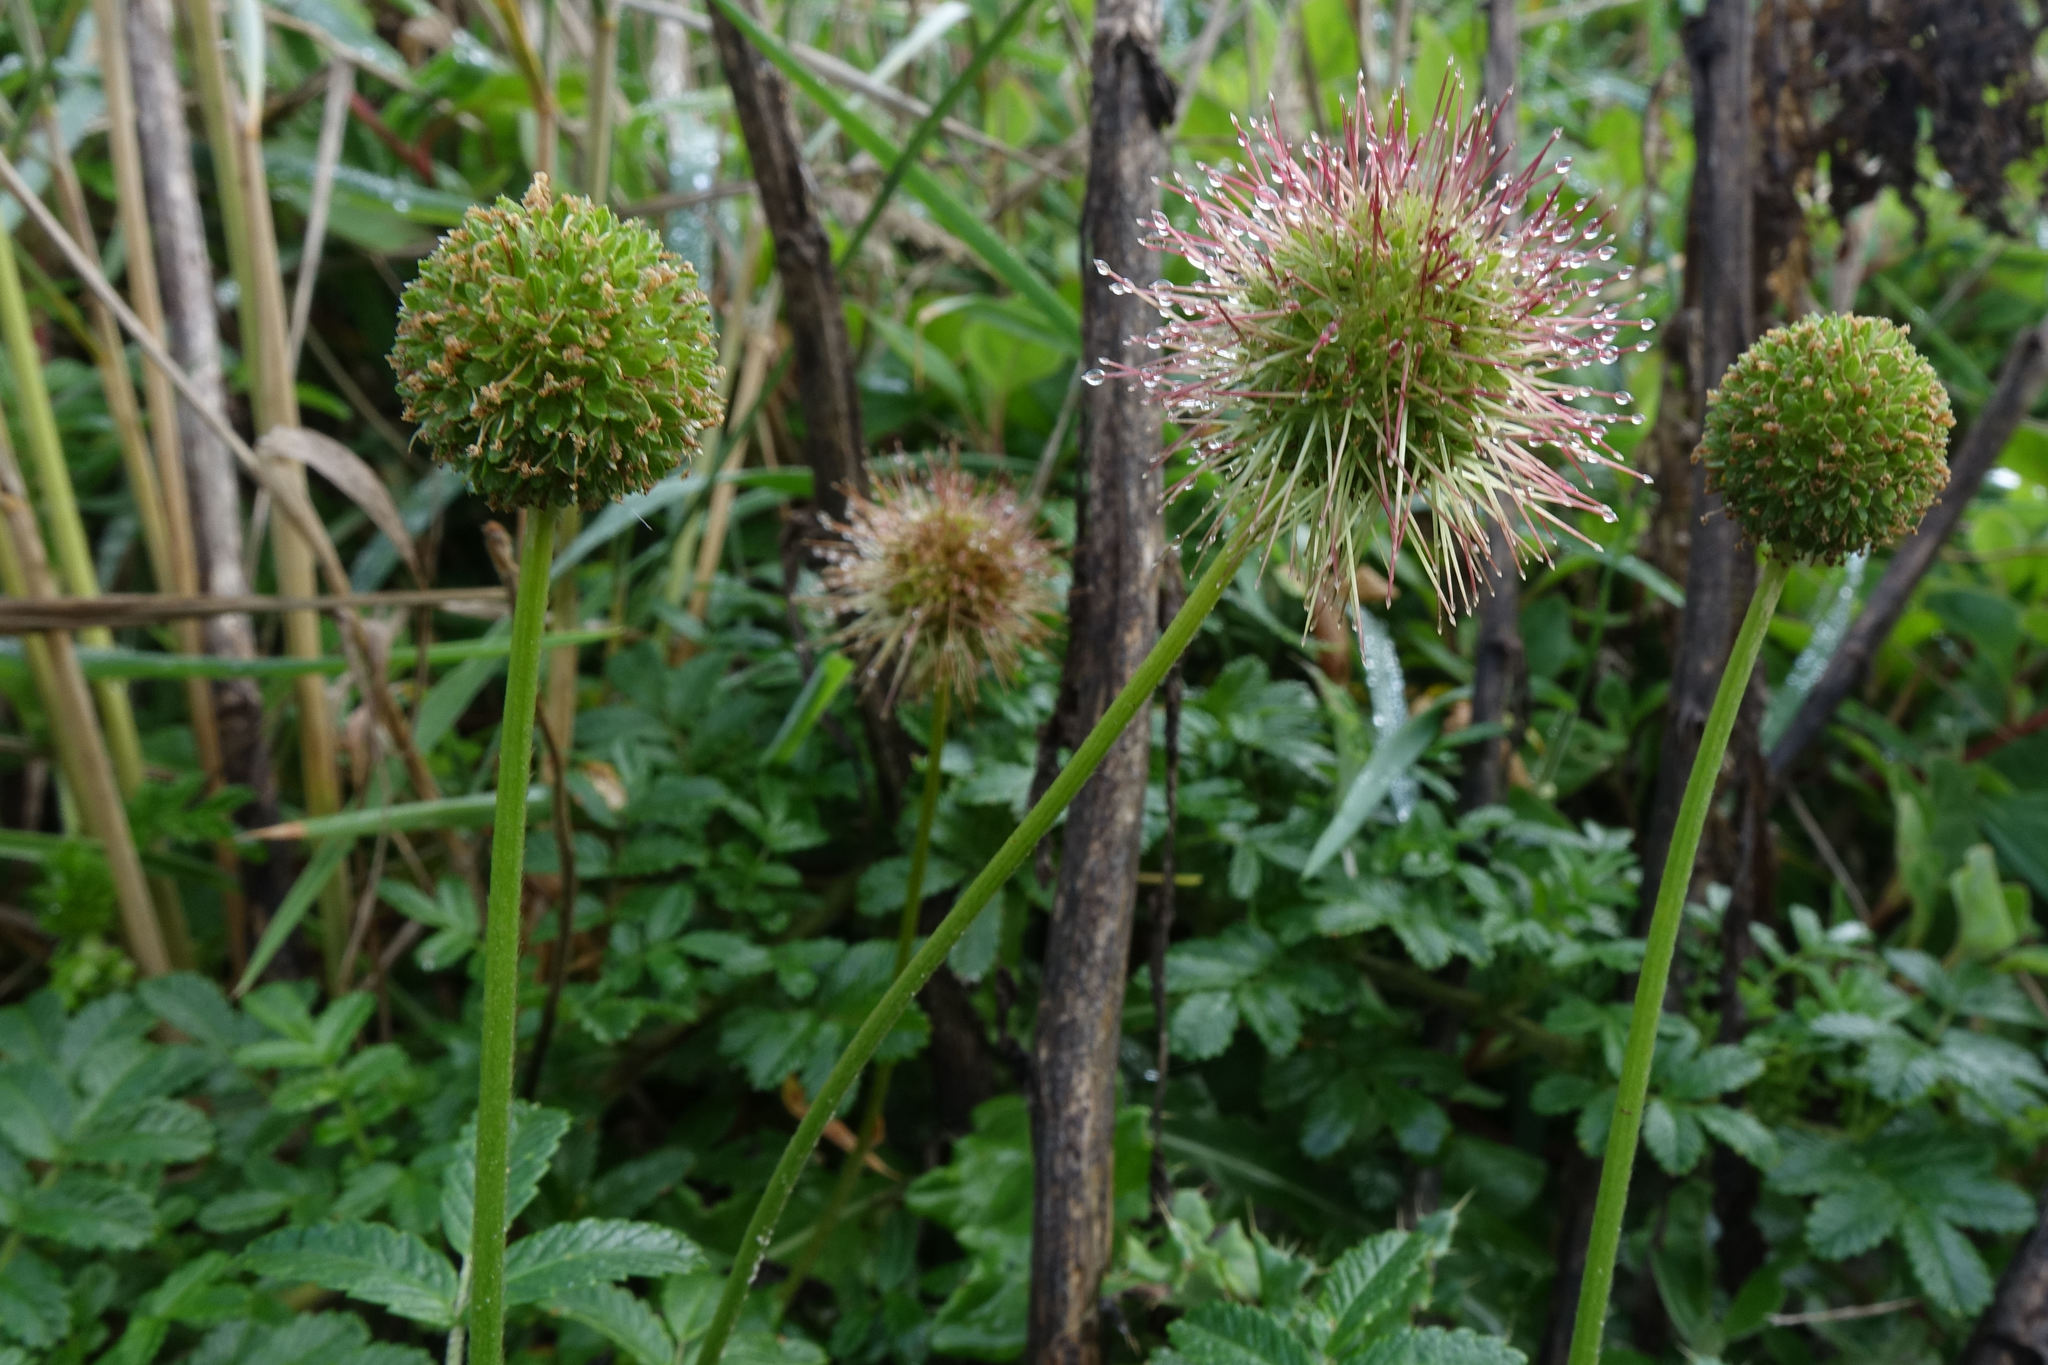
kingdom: Plantae
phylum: Tracheophyta
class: Magnoliopsida
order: Rosales
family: Rosaceae
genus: Acaena
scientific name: Acaena pallida
